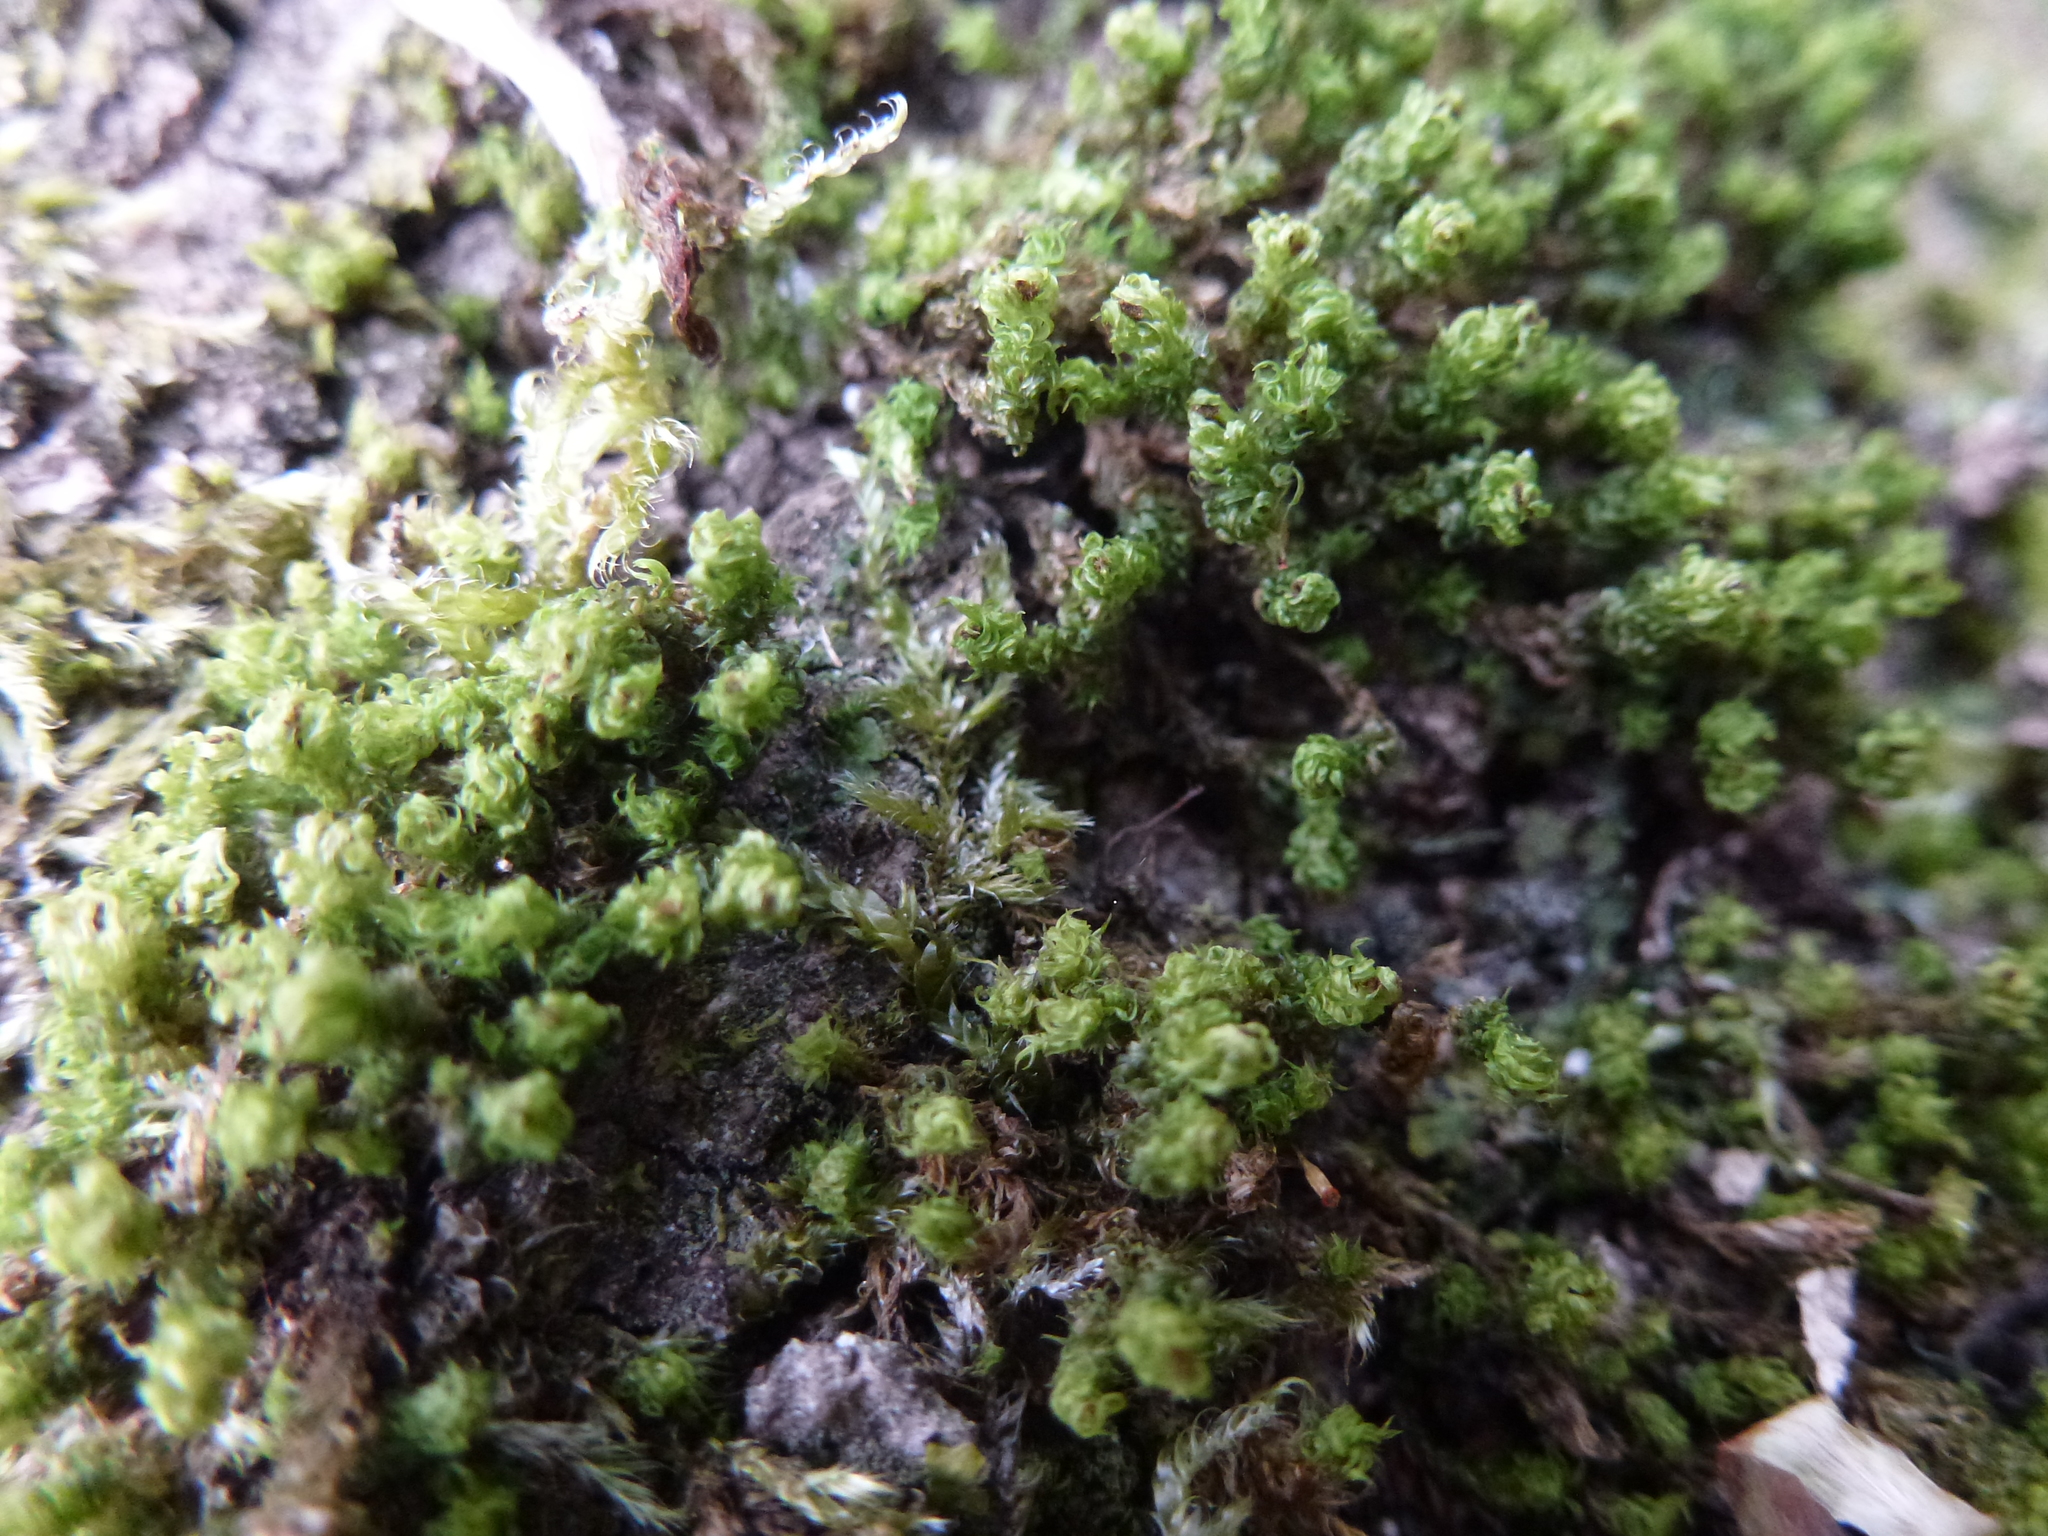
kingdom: Plantae
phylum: Bryophyta
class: Bryopsida
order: Orthotrichales
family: Orthotrichaceae
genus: Plenogemma
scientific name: Plenogemma phyllantha
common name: Frizzled pincushion
